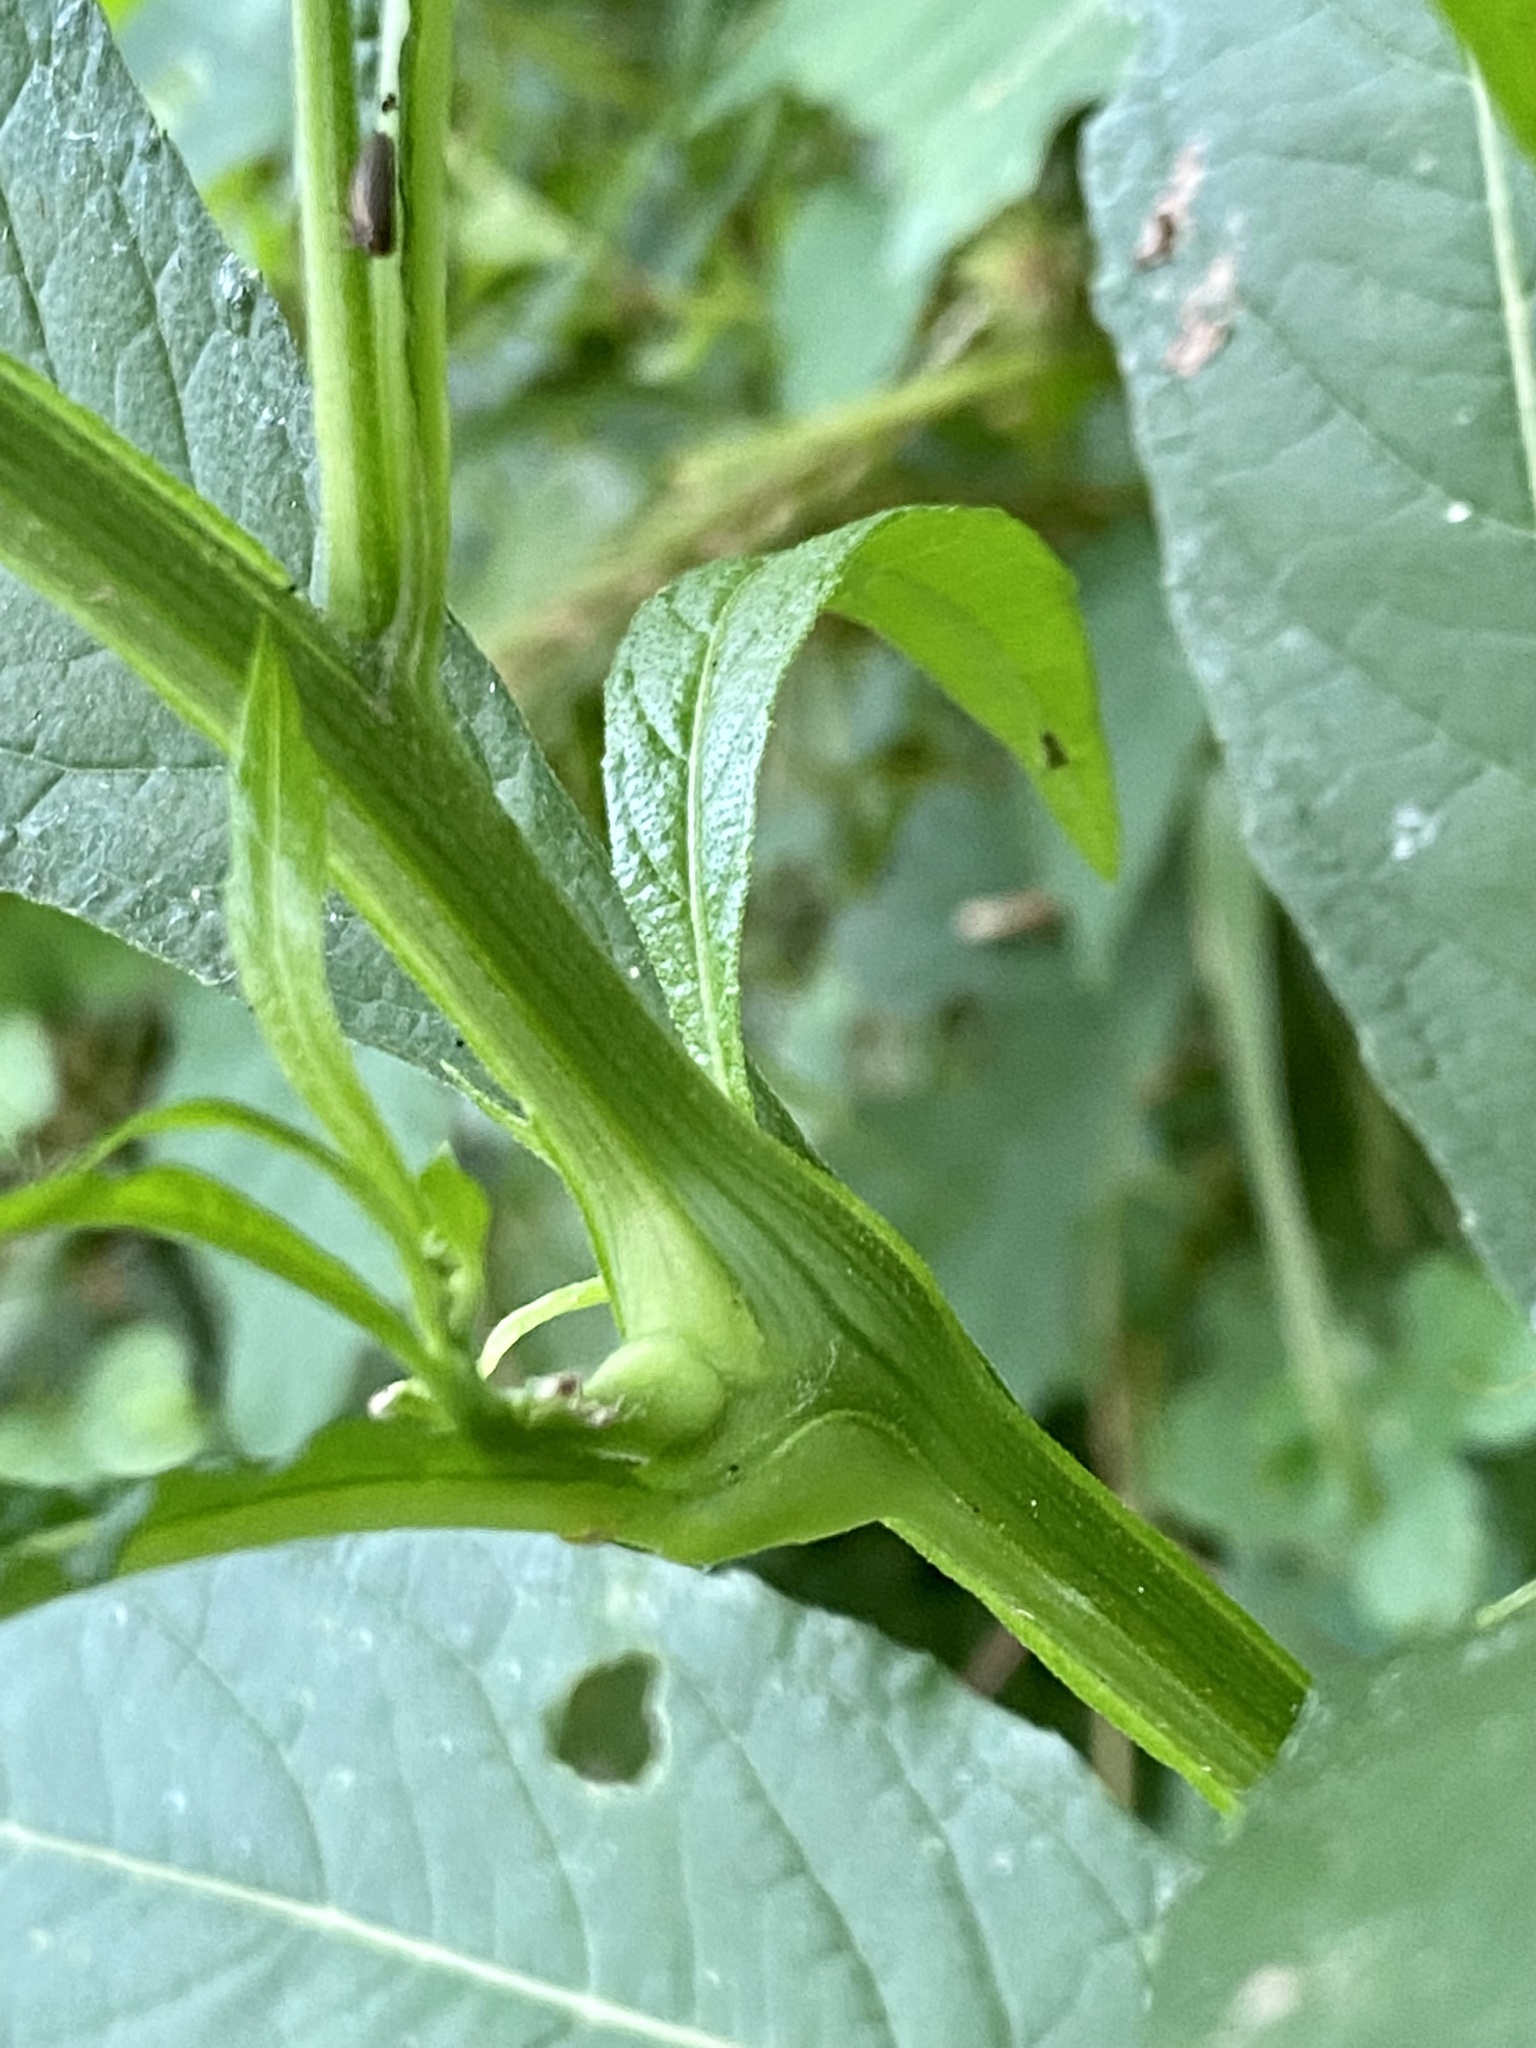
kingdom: Animalia
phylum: Arthropoda
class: Insecta
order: Diptera
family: Cecidomyiidae
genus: Neolasioptera
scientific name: Neolasioptera verbesinae
